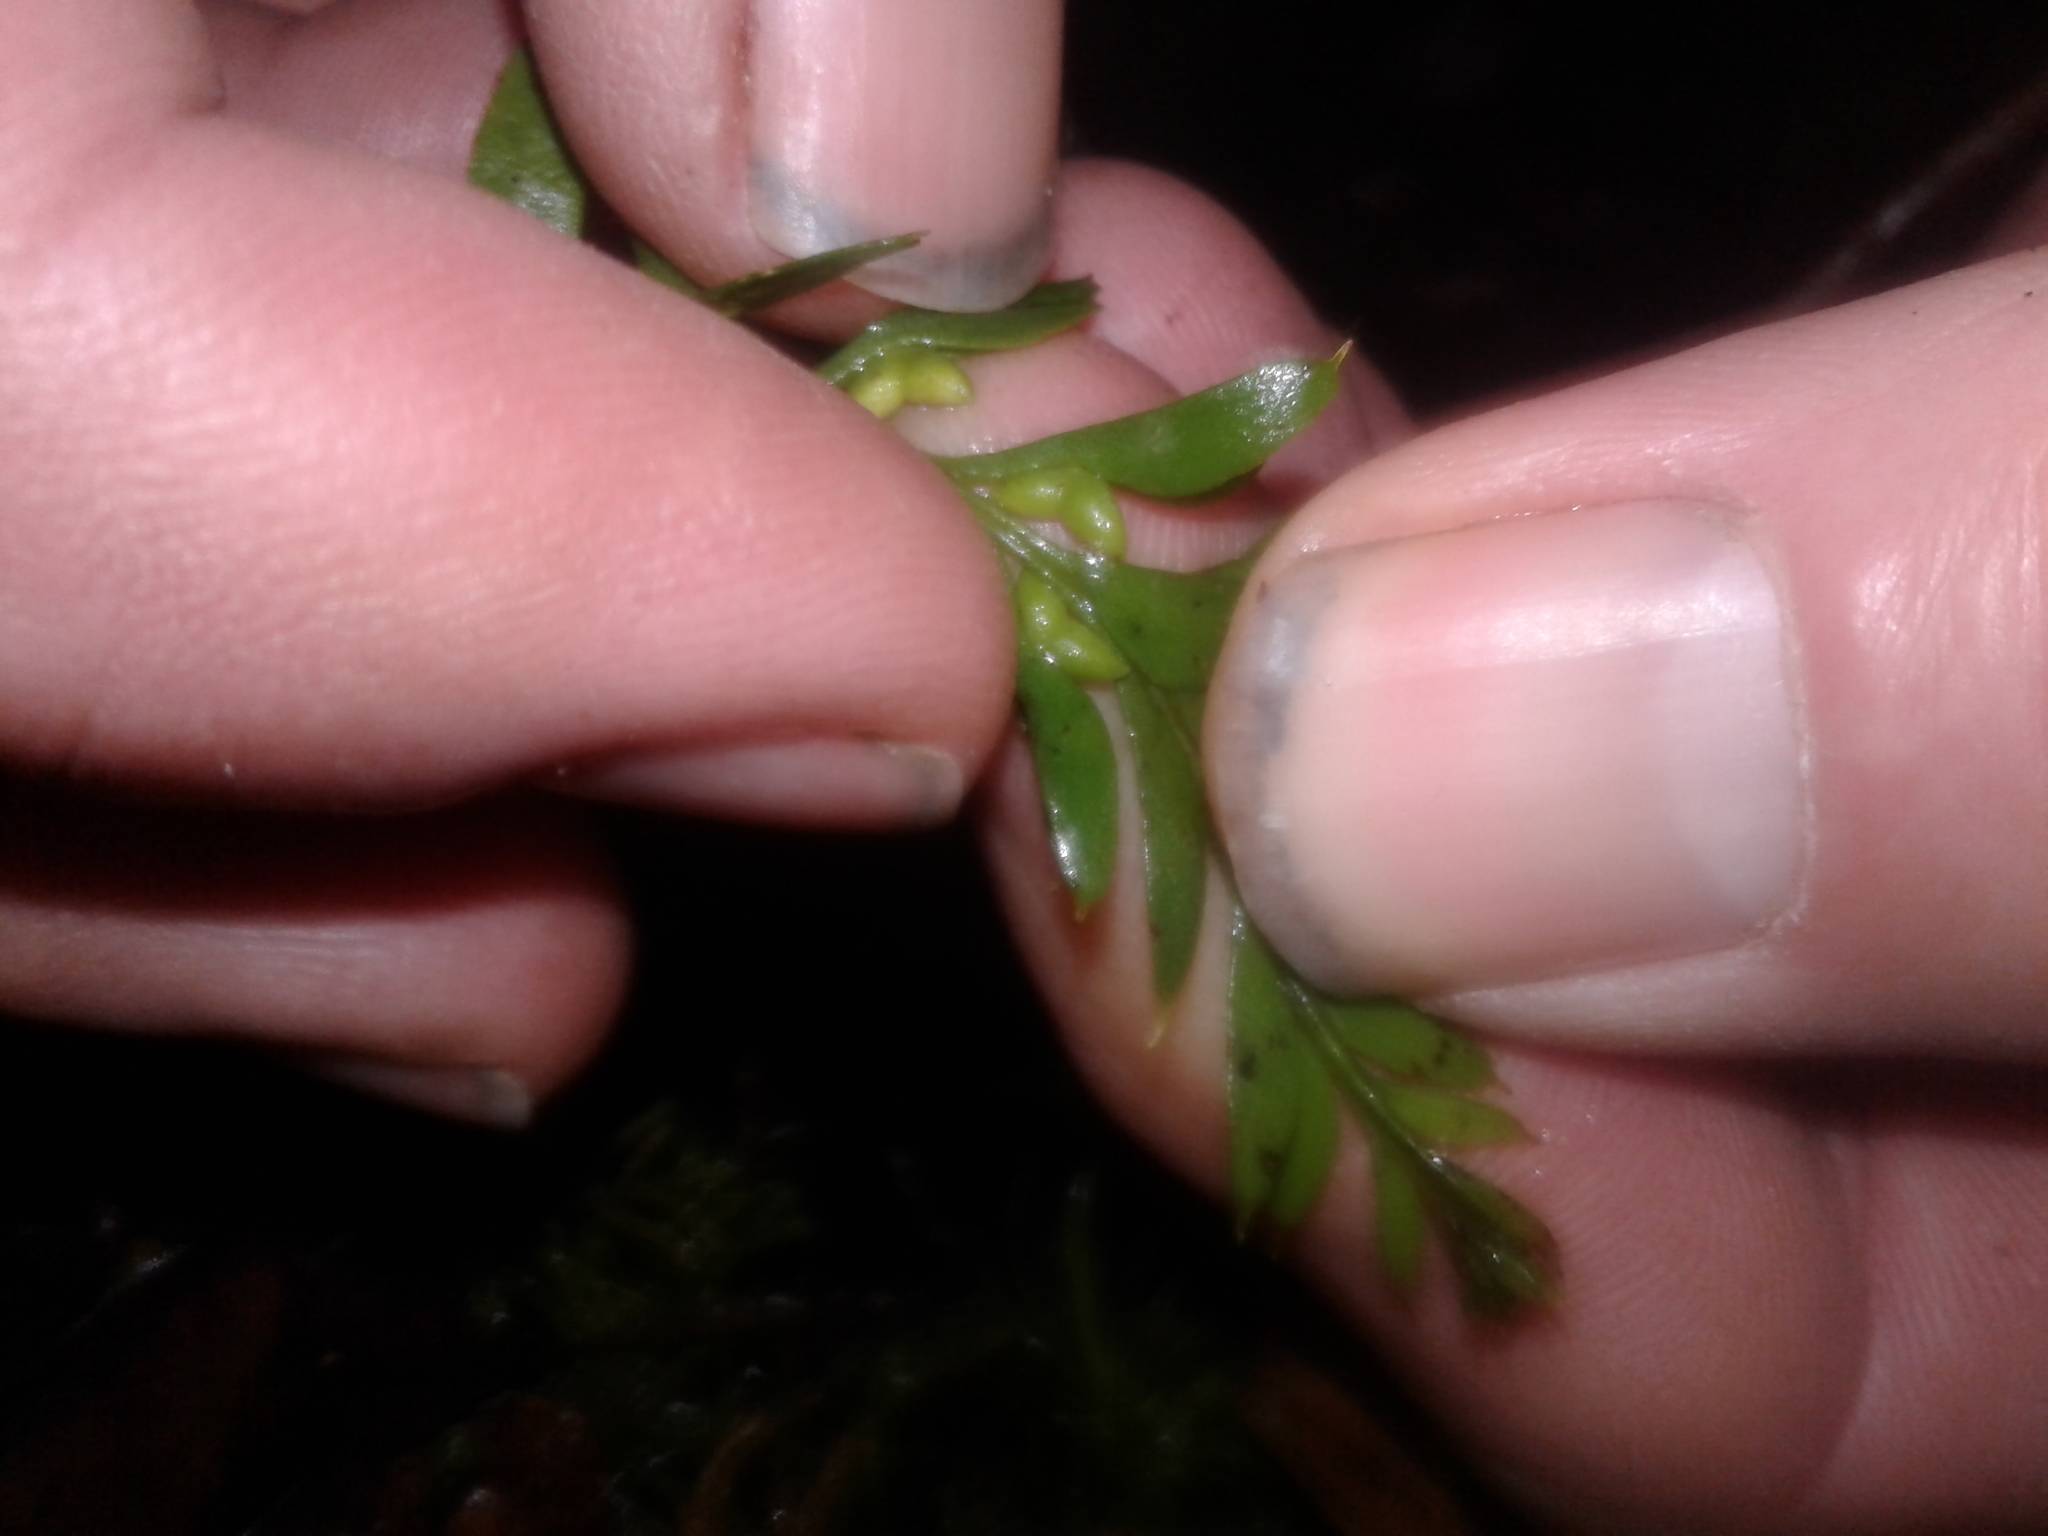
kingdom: Plantae
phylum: Tracheophyta
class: Polypodiopsida
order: Psilotales
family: Psilotaceae
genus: Tmesipteris
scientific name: Tmesipteris tannensis
